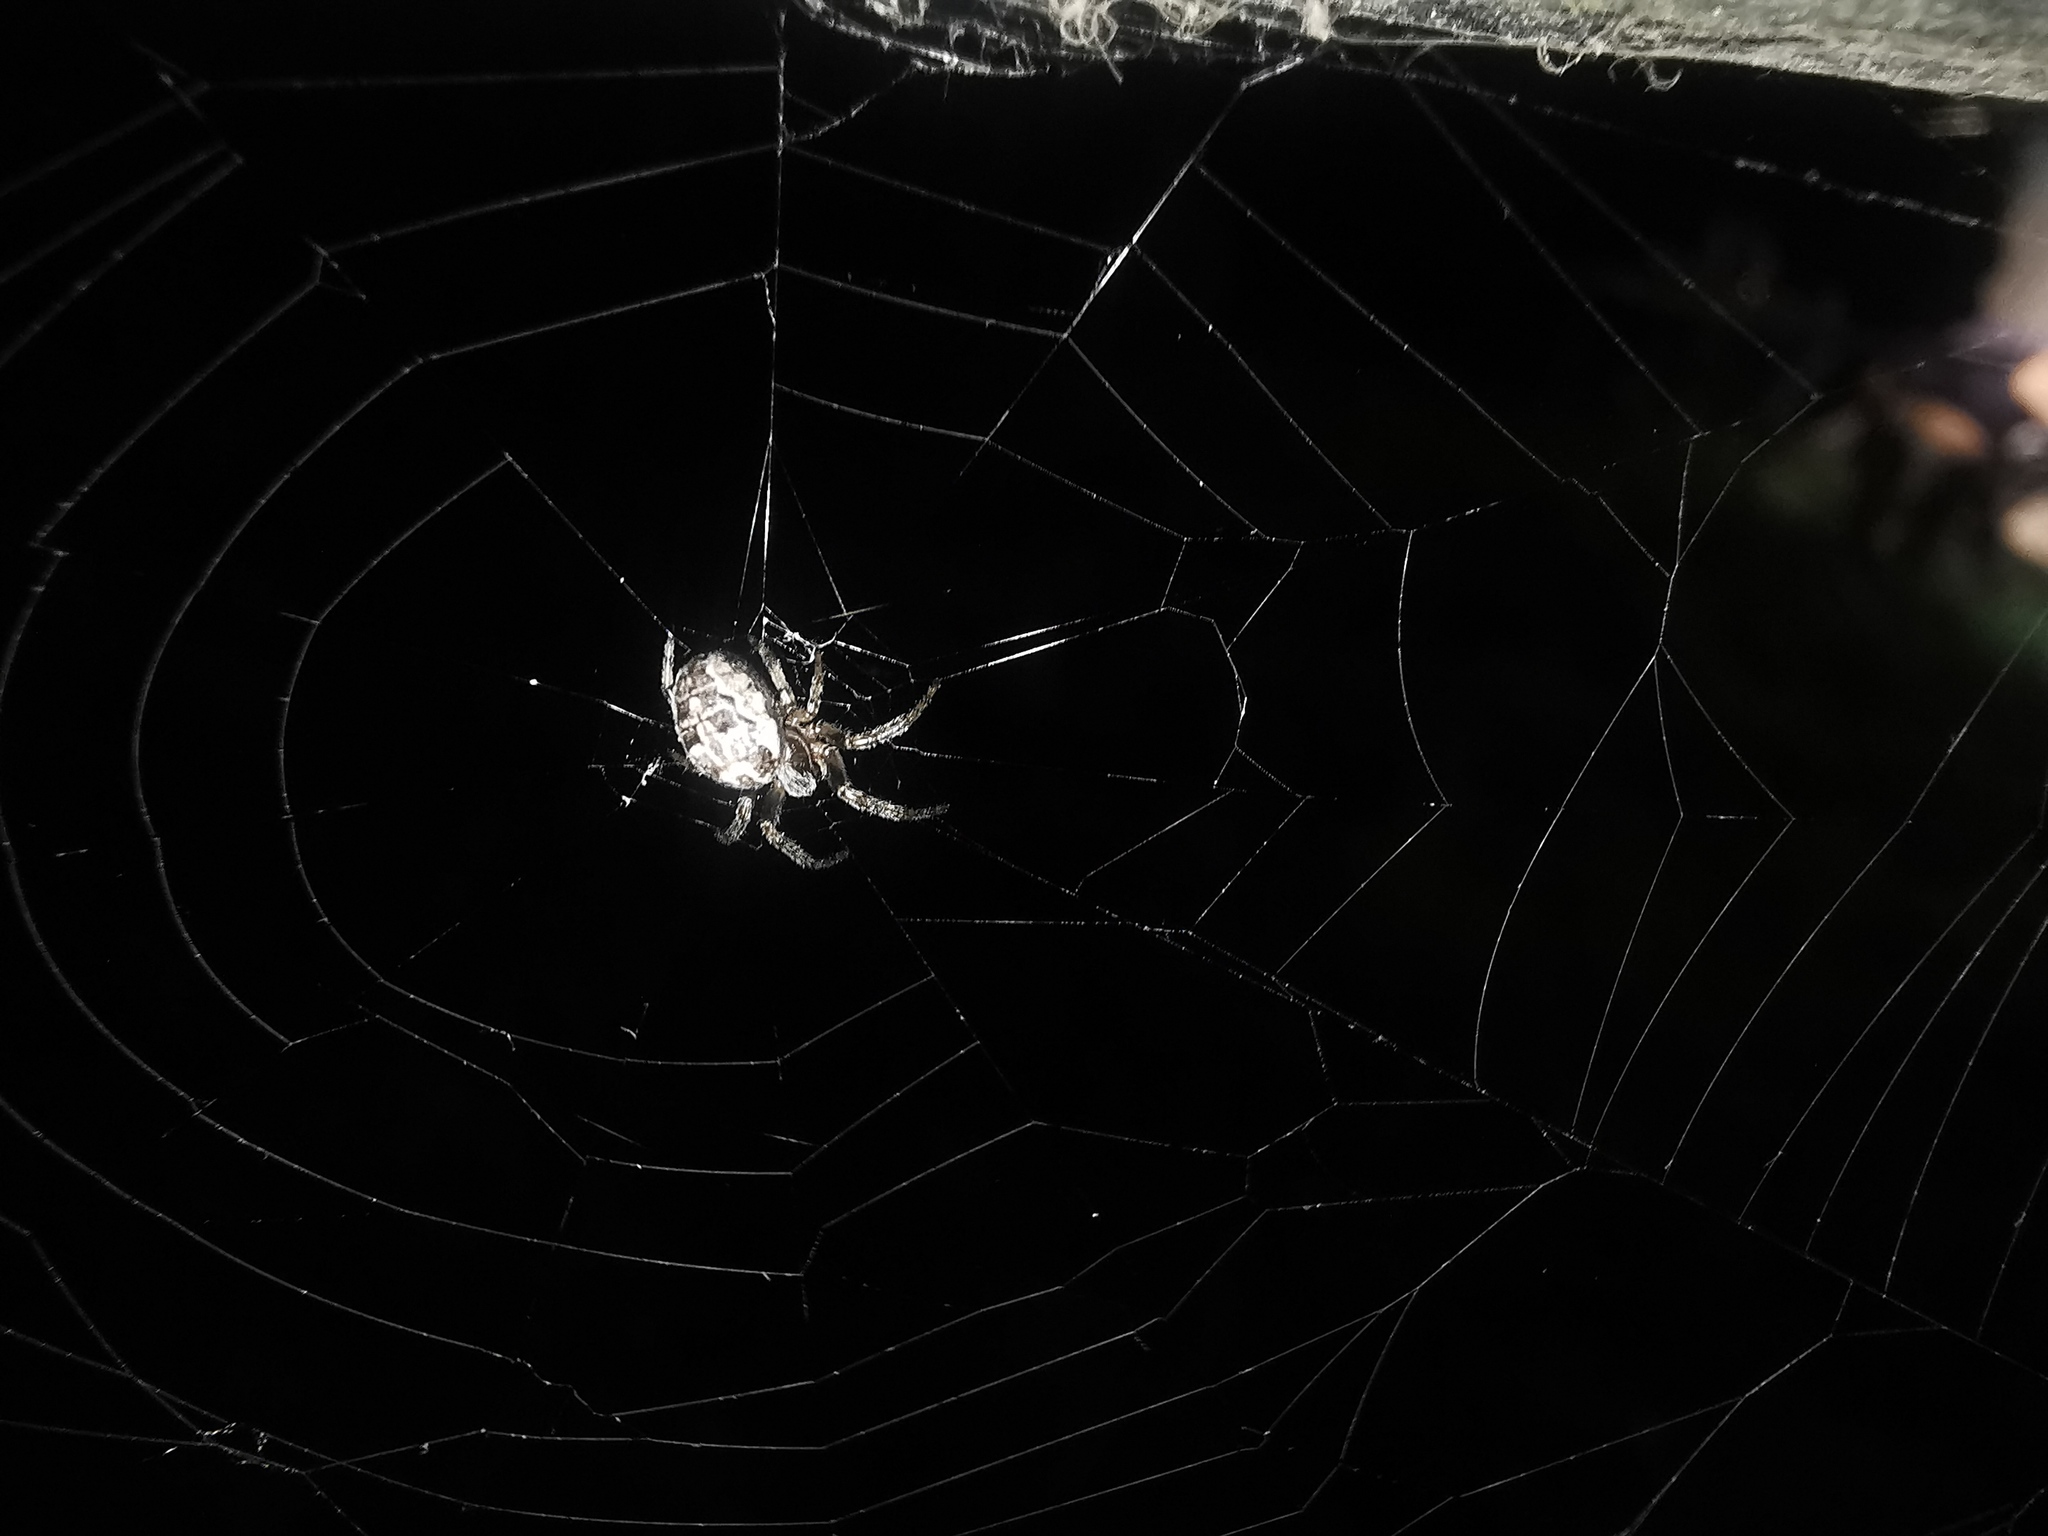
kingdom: Animalia
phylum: Arthropoda
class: Arachnida
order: Araneae
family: Araneidae
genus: Larinioides
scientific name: Larinioides
